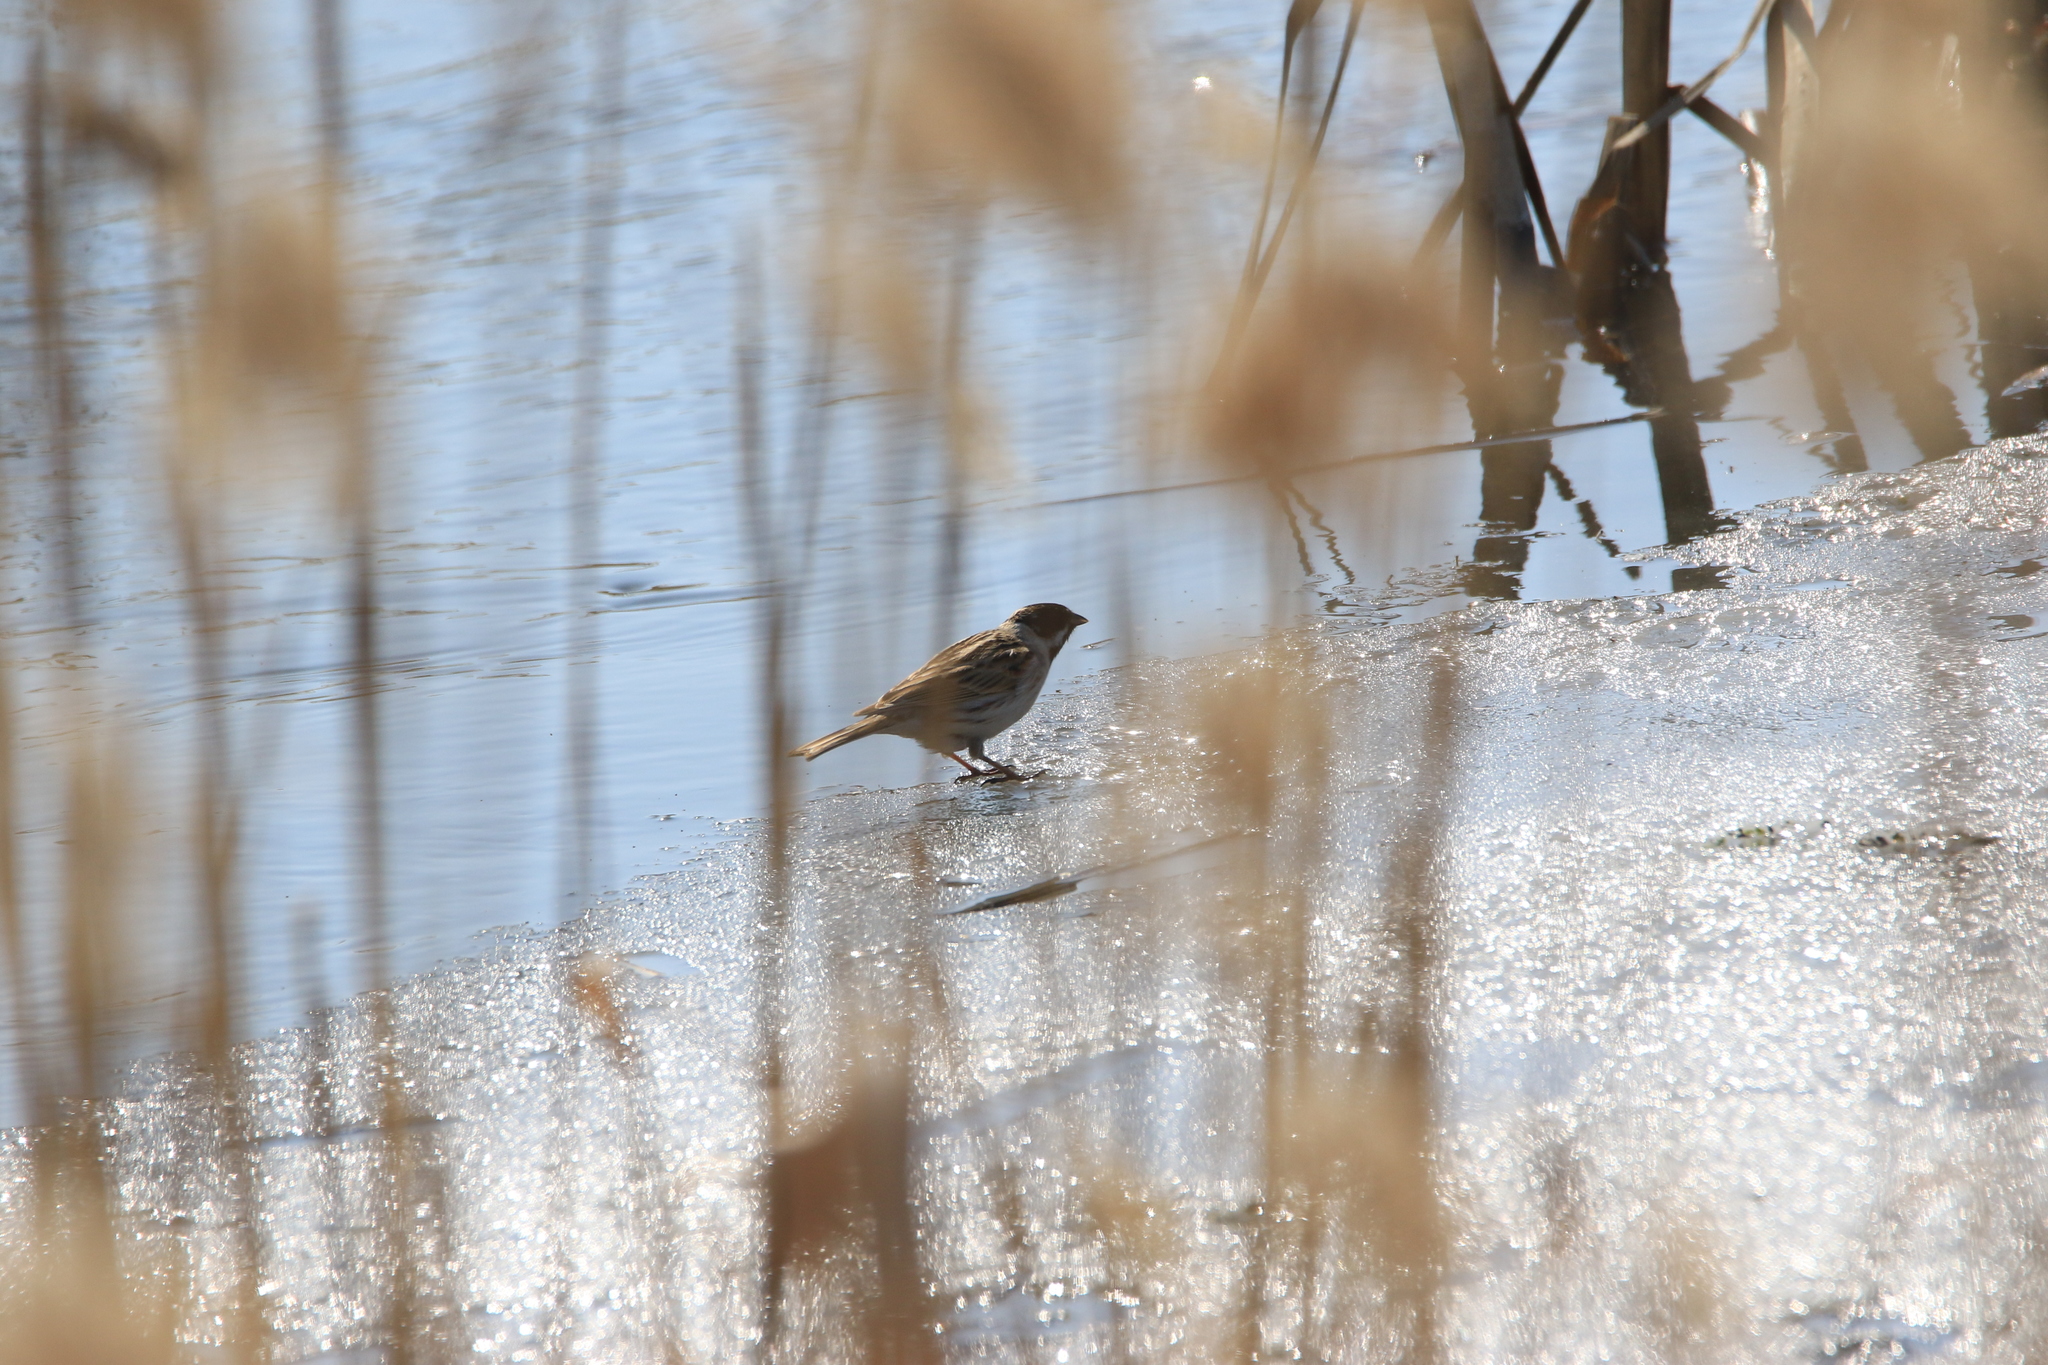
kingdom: Animalia
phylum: Chordata
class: Aves
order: Passeriformes
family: Emberizidae
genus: Emberiza
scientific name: Emberiza schoeniclus
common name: Reed bunting
